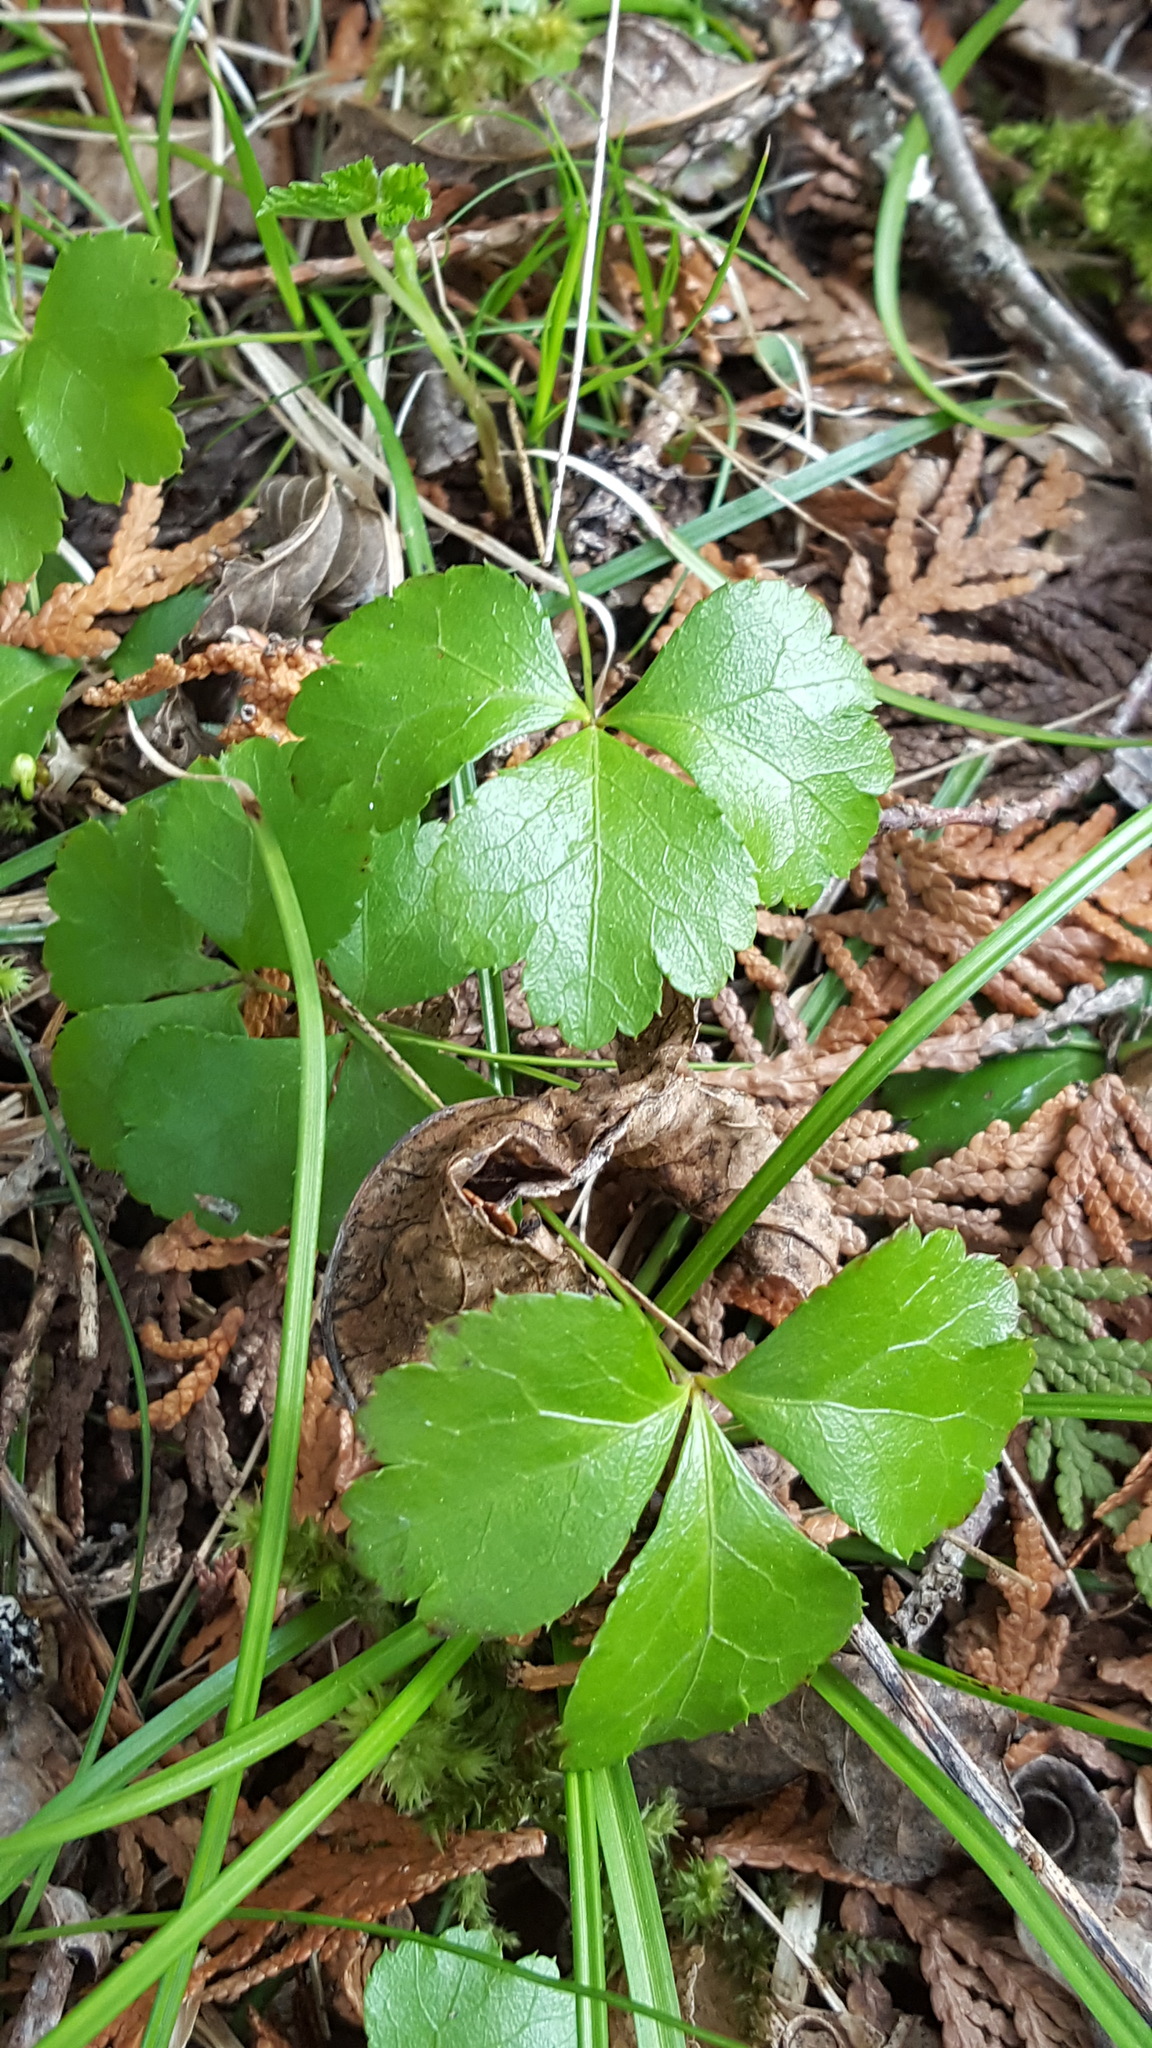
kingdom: Plantae
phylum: Tracheophyta
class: Magnoliopsida
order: Ranunculales
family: Ranunculaceae
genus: Coptis
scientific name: Coptis trifolia
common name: Canker-root
